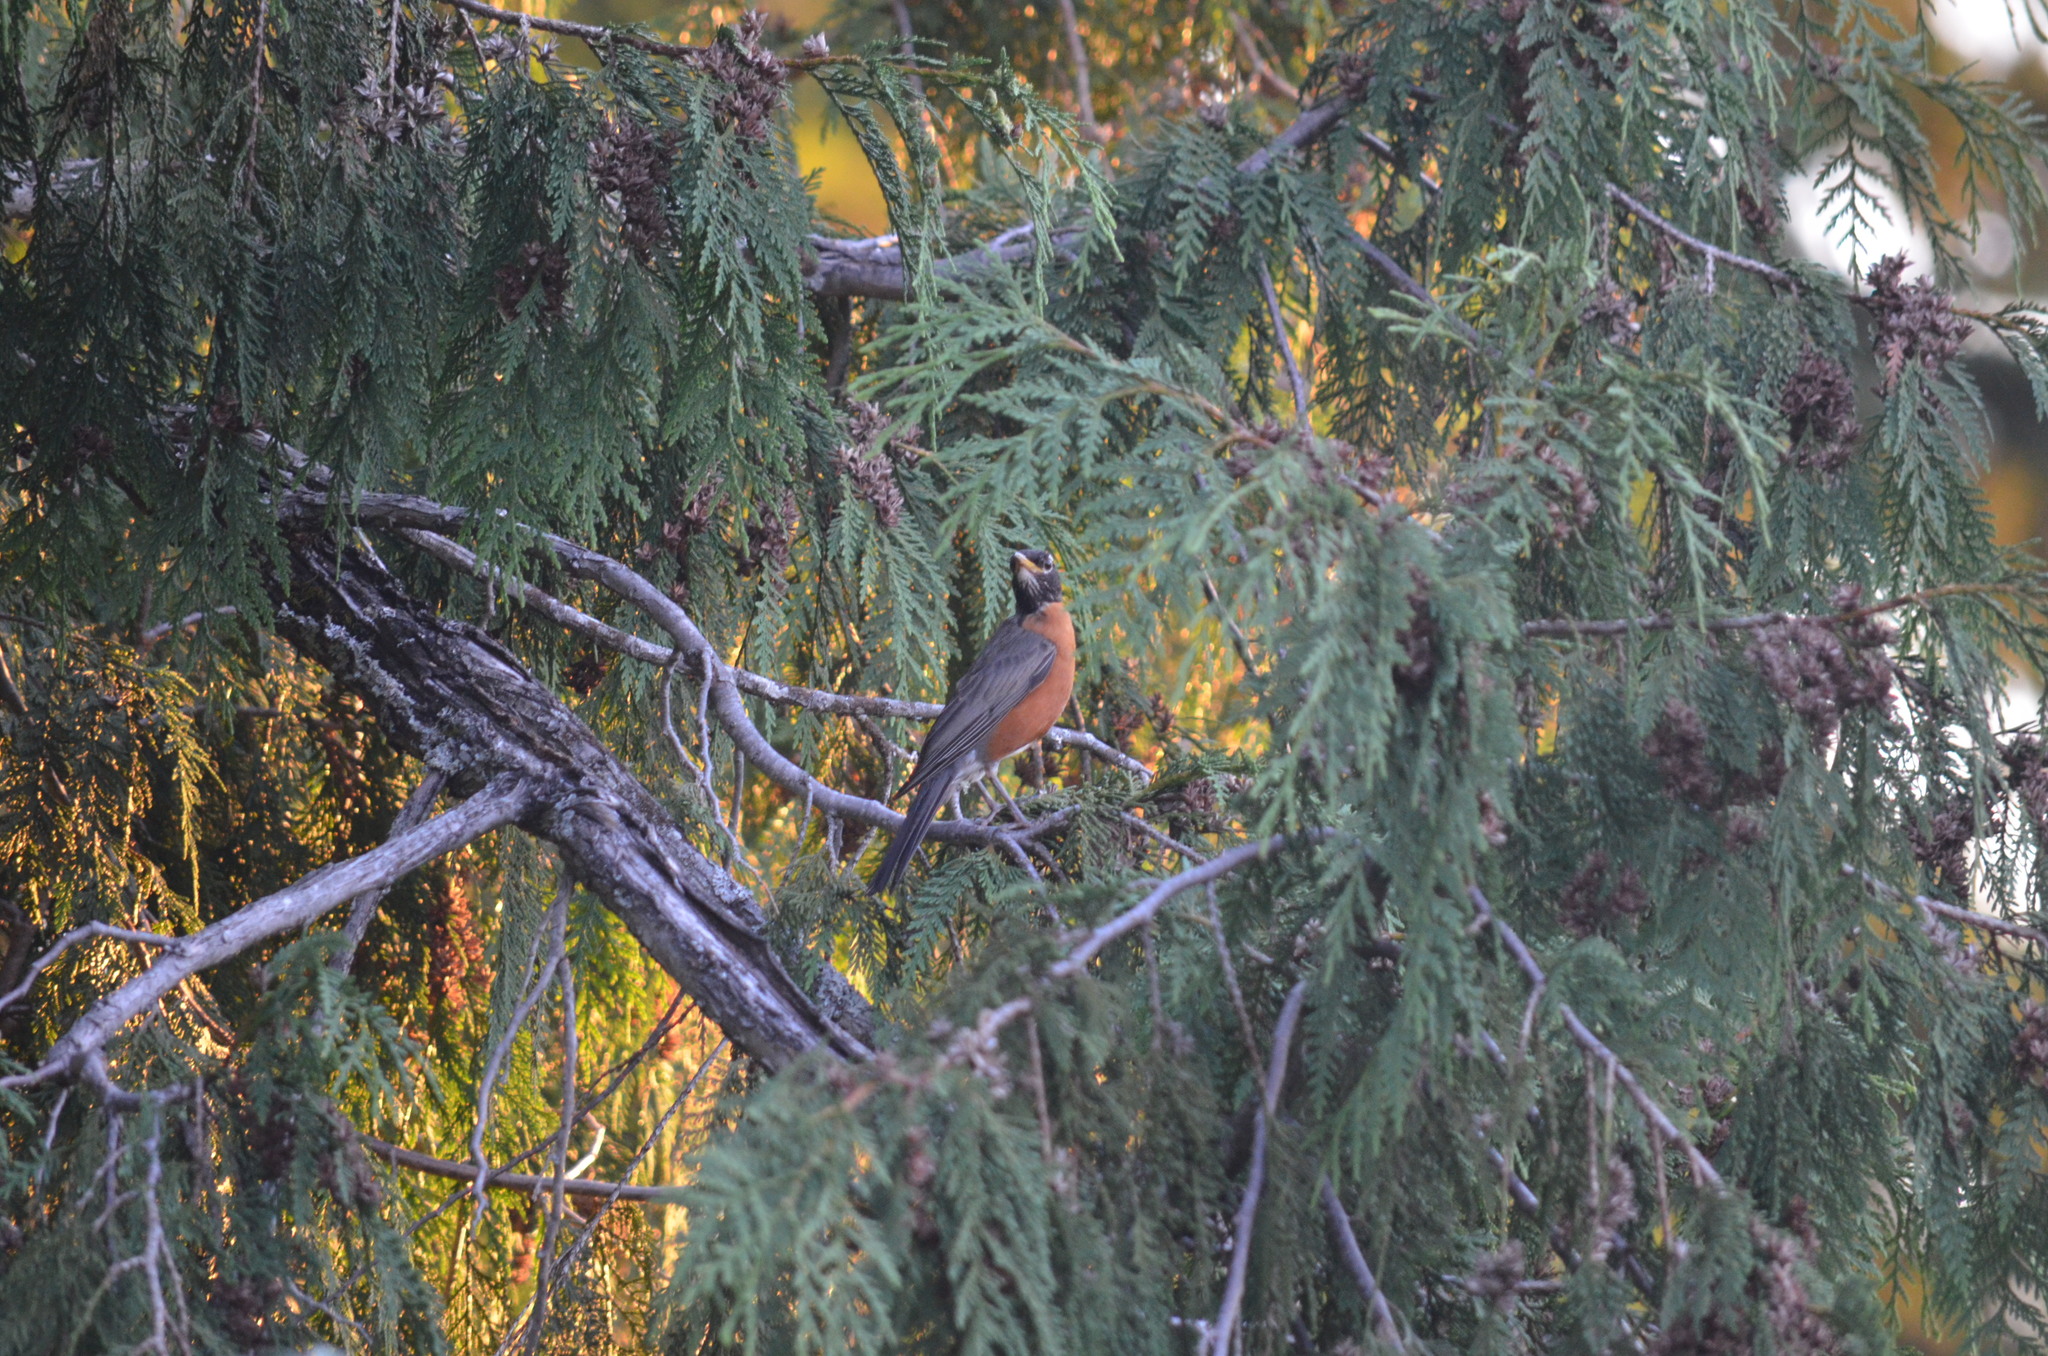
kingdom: Animalia
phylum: Chordata
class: Aves
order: Passeriformes
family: Turdidae
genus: Turdus
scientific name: Turdus migratorius
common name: American robin
